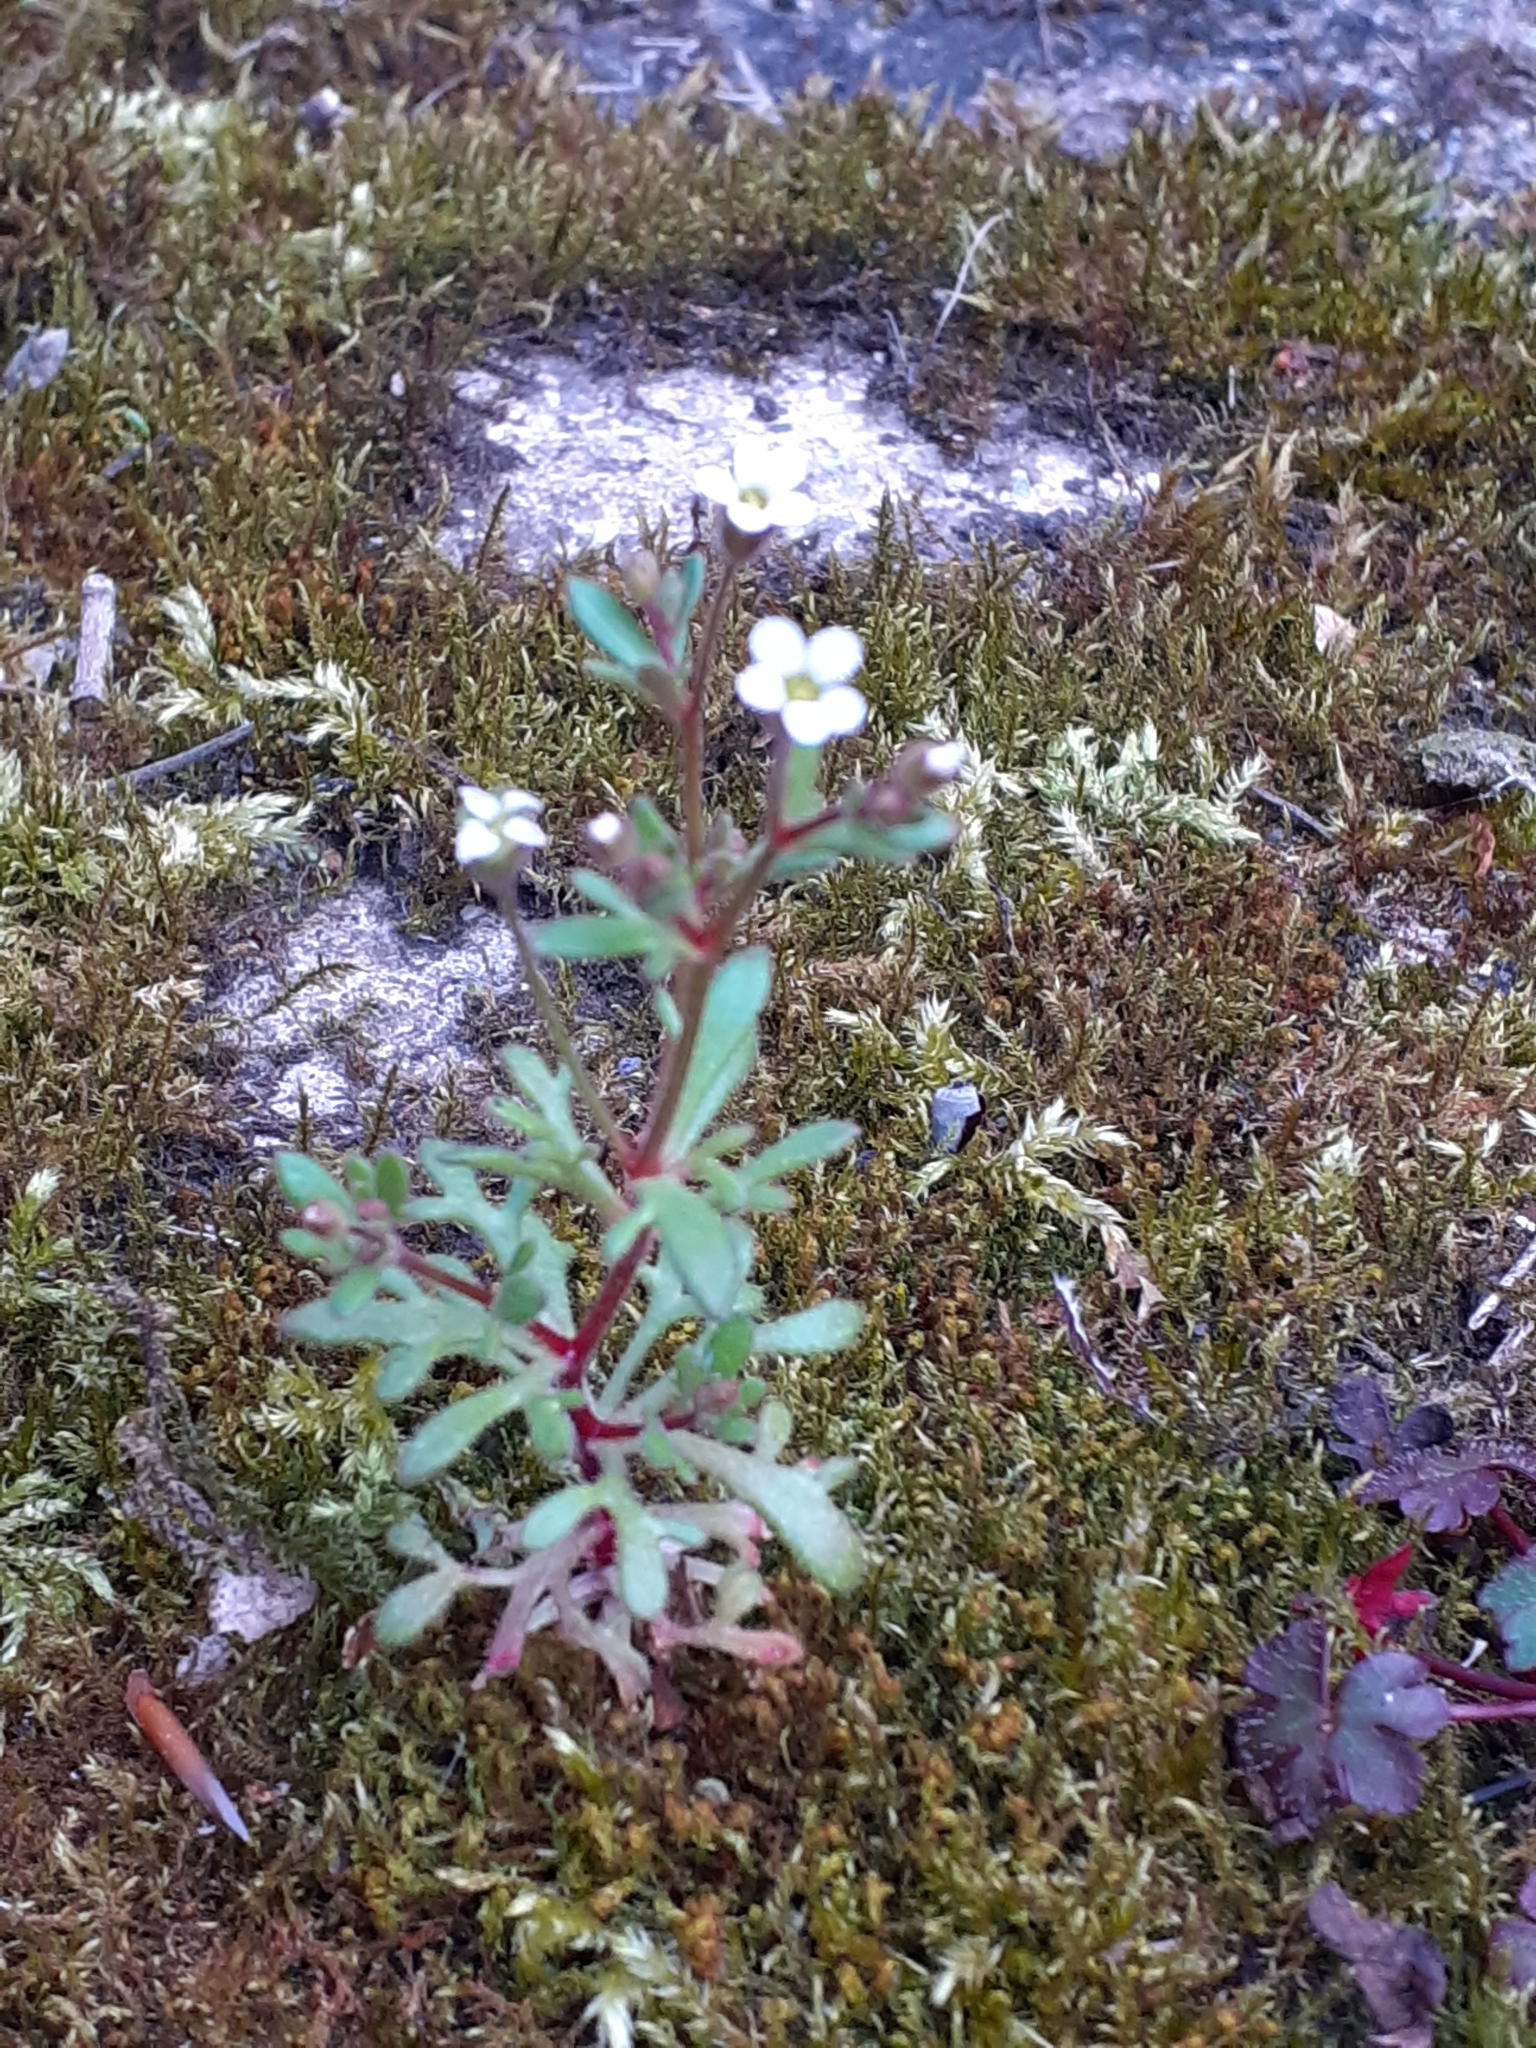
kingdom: Plantae
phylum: Tracheophyta
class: Magnoliopsida
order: Saxifragales
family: Saxifragaceae
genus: Saxifraga
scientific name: Saxifraga tridactylites
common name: Rue-leaved saxifrage
